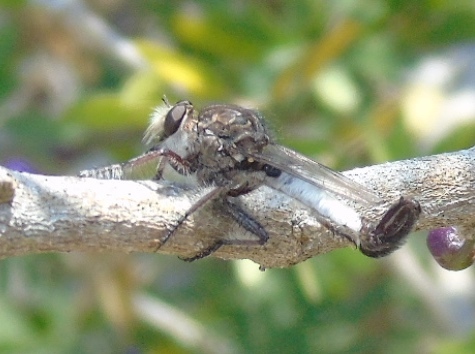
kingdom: Animalia
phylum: Arthropoda
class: Insecta
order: Diptera
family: Asilidae
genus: Efferia
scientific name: Efferia
